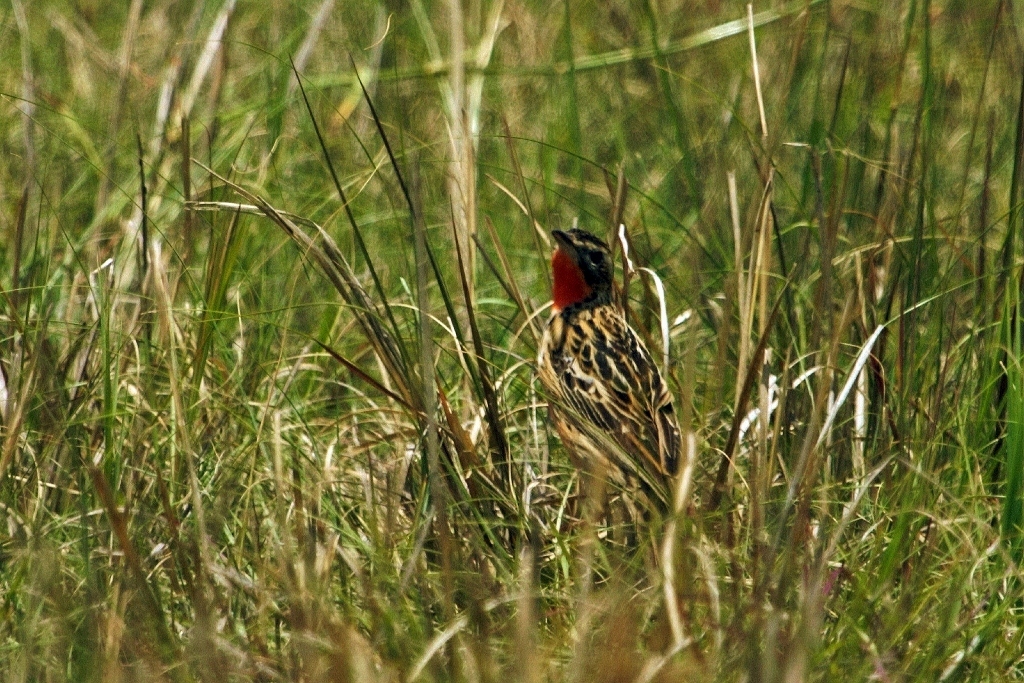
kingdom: Animalia
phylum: Chordata
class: Aves
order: Passeriformes
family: Motacillidae
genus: Macronyx
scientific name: Macronyx ameliae
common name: Rosy-throated longclaw
